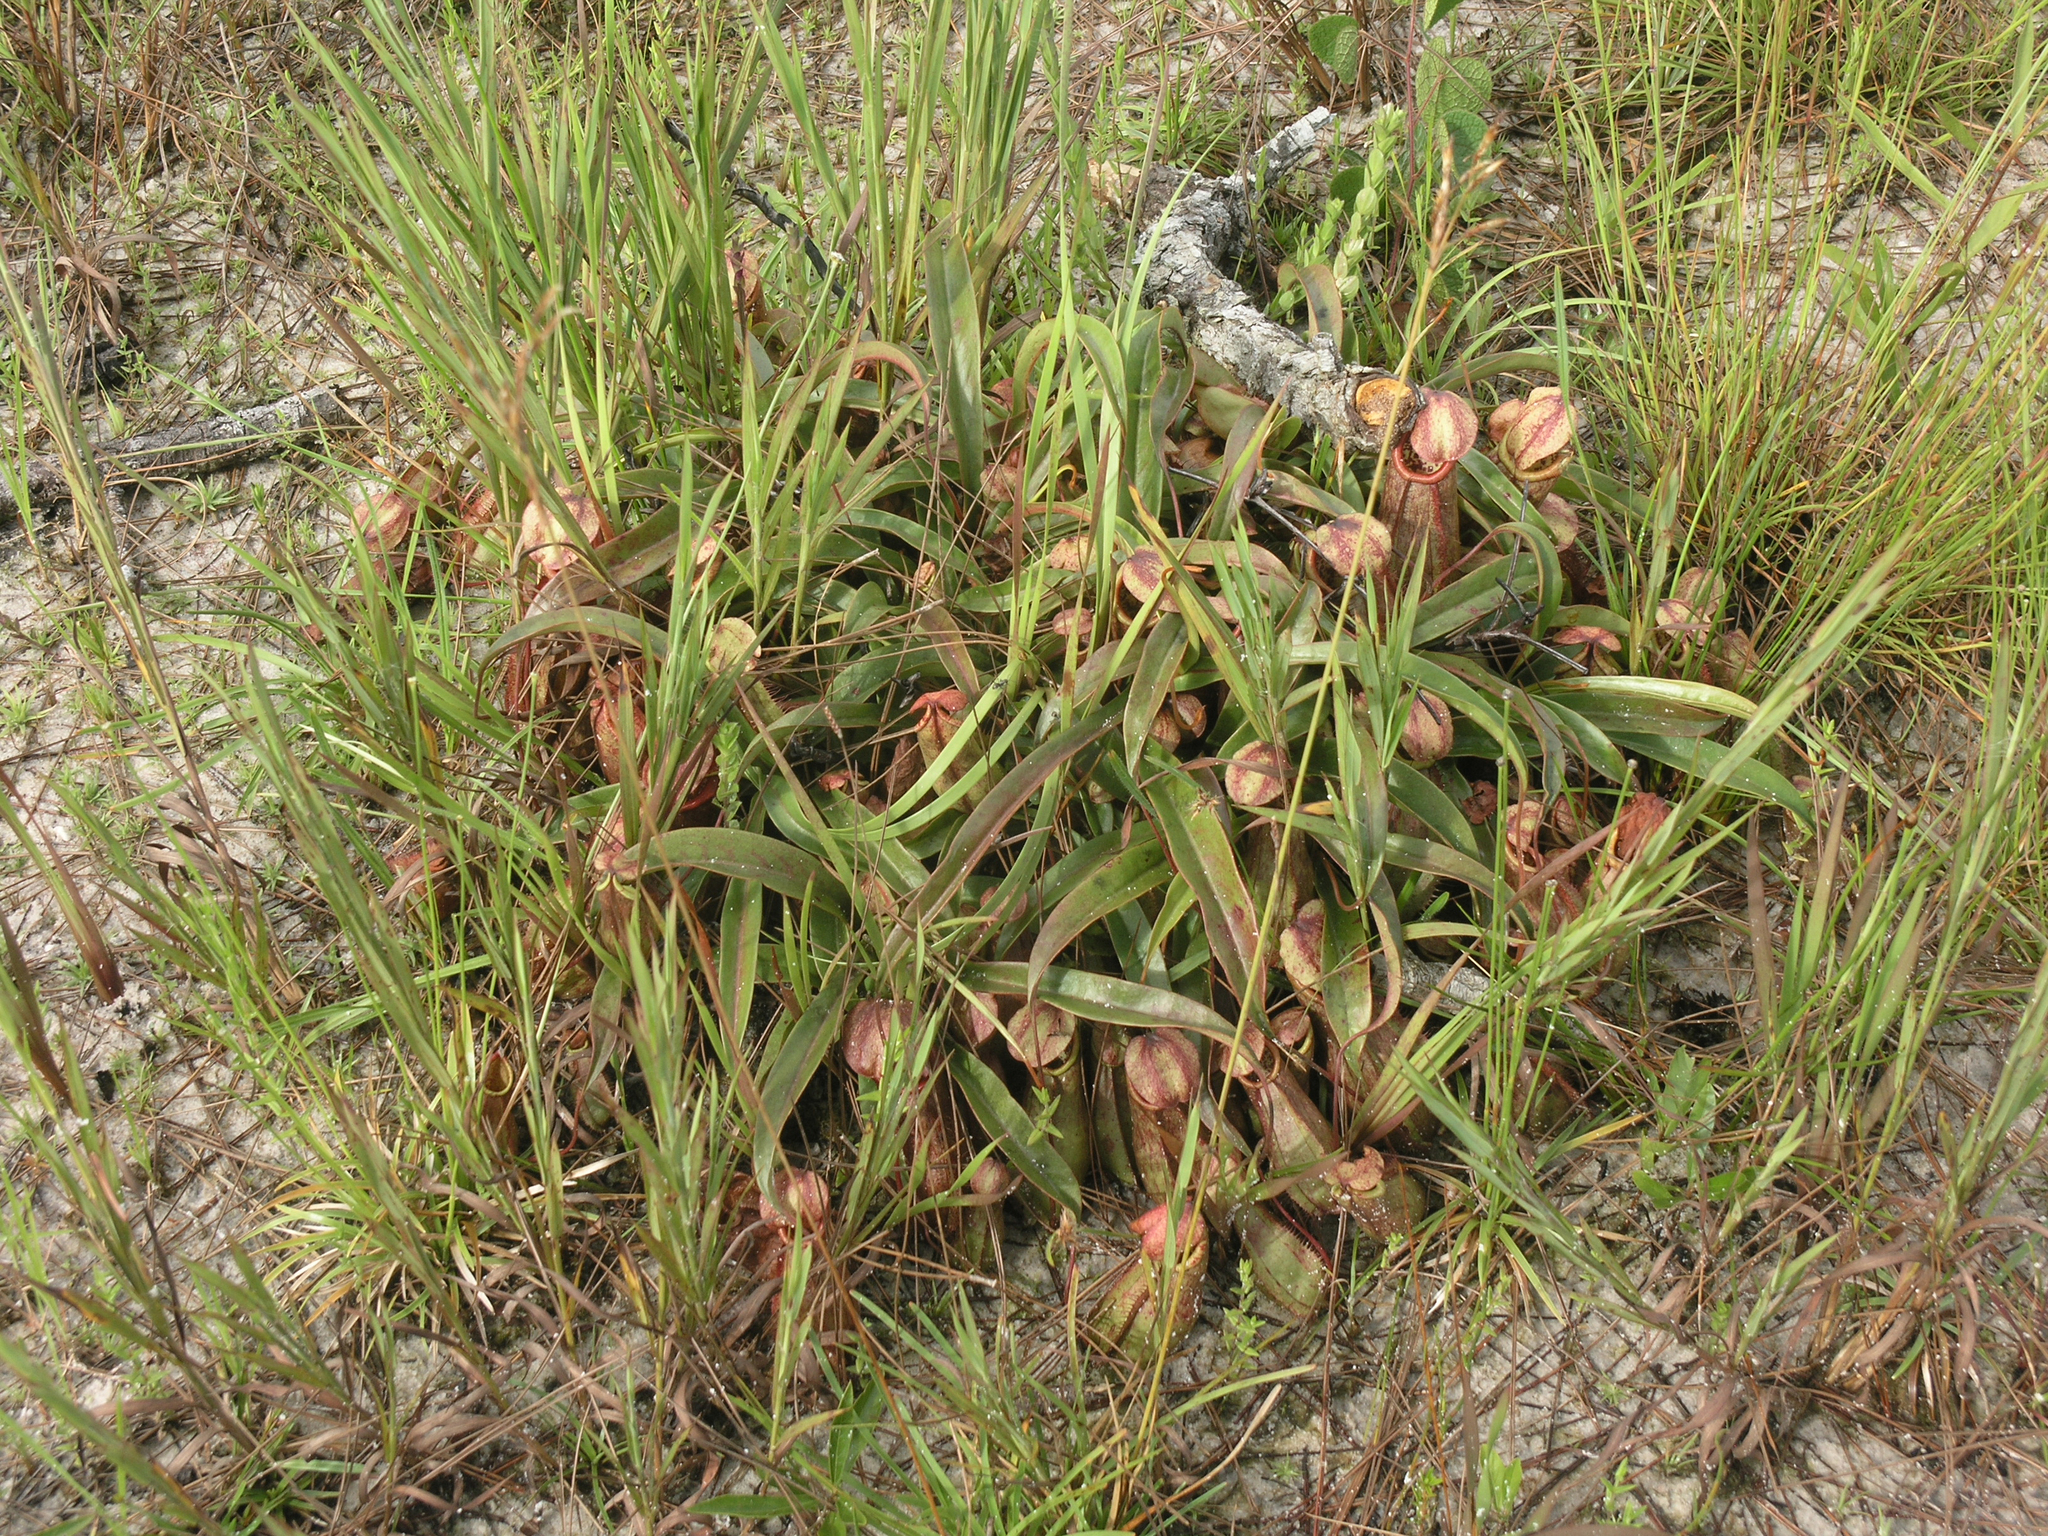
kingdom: Plantae
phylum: Tracheophyta
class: Magnoliopsida
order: Caryophyllales
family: Nepenthaceae
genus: Nepenthes
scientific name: Nepenthes smilesii
